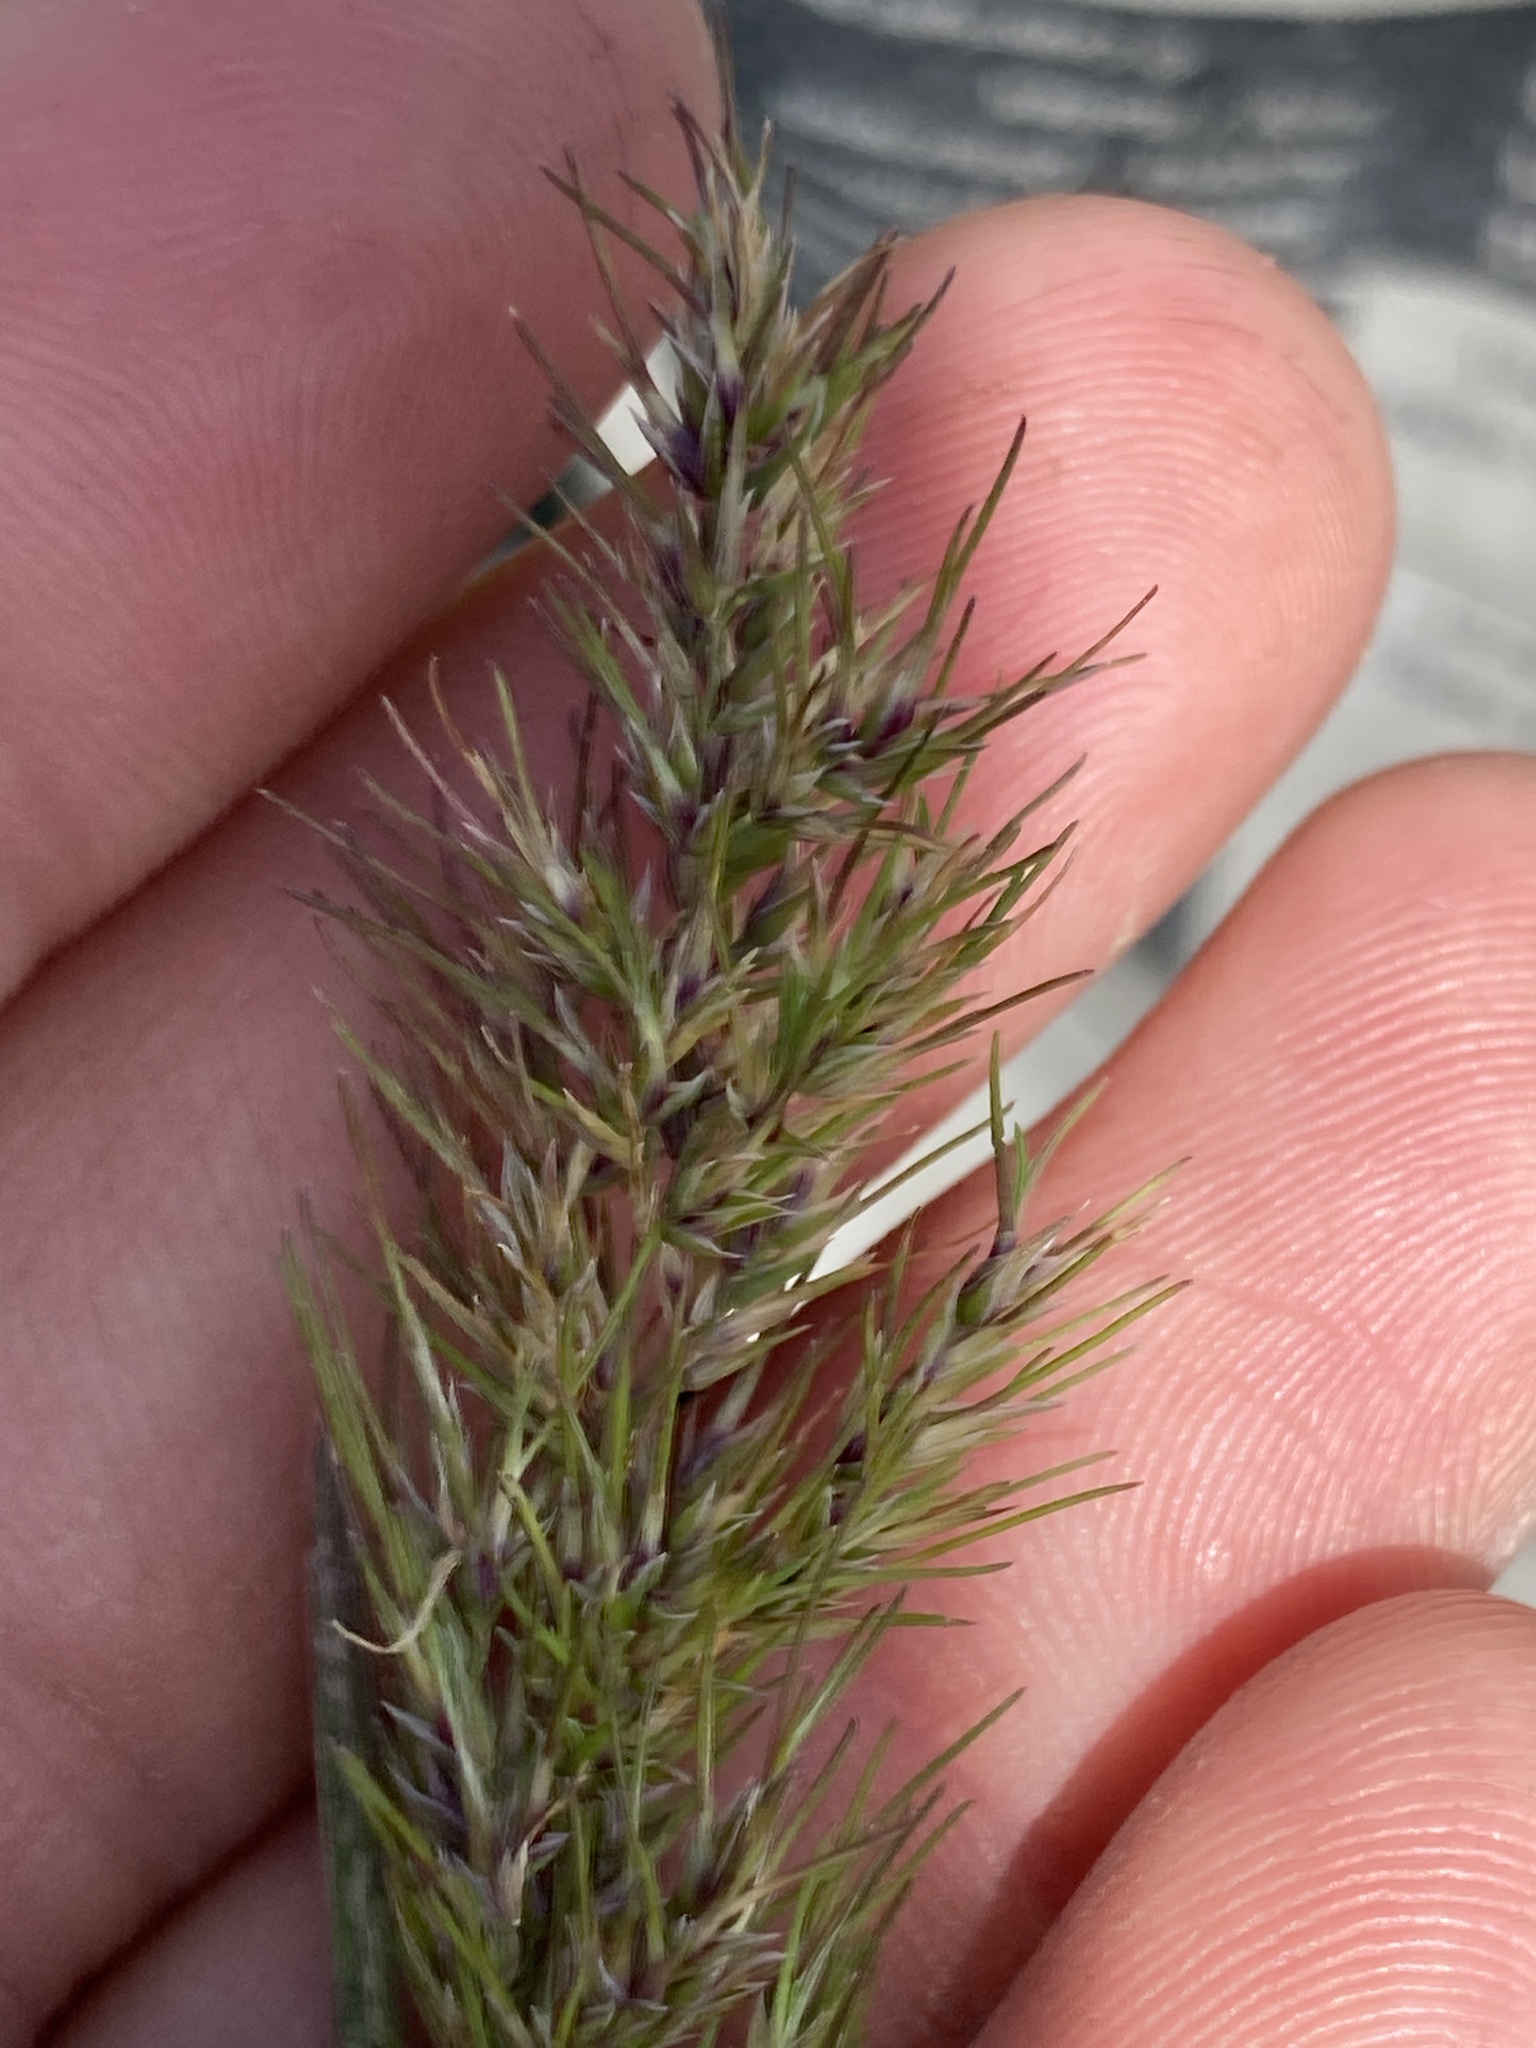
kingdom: Plantae
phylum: Tracheophyta
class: Liliopsida
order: Poales
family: Poaceae
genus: Poa
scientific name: Poa bulbosa
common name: Bulbous bluegrass
